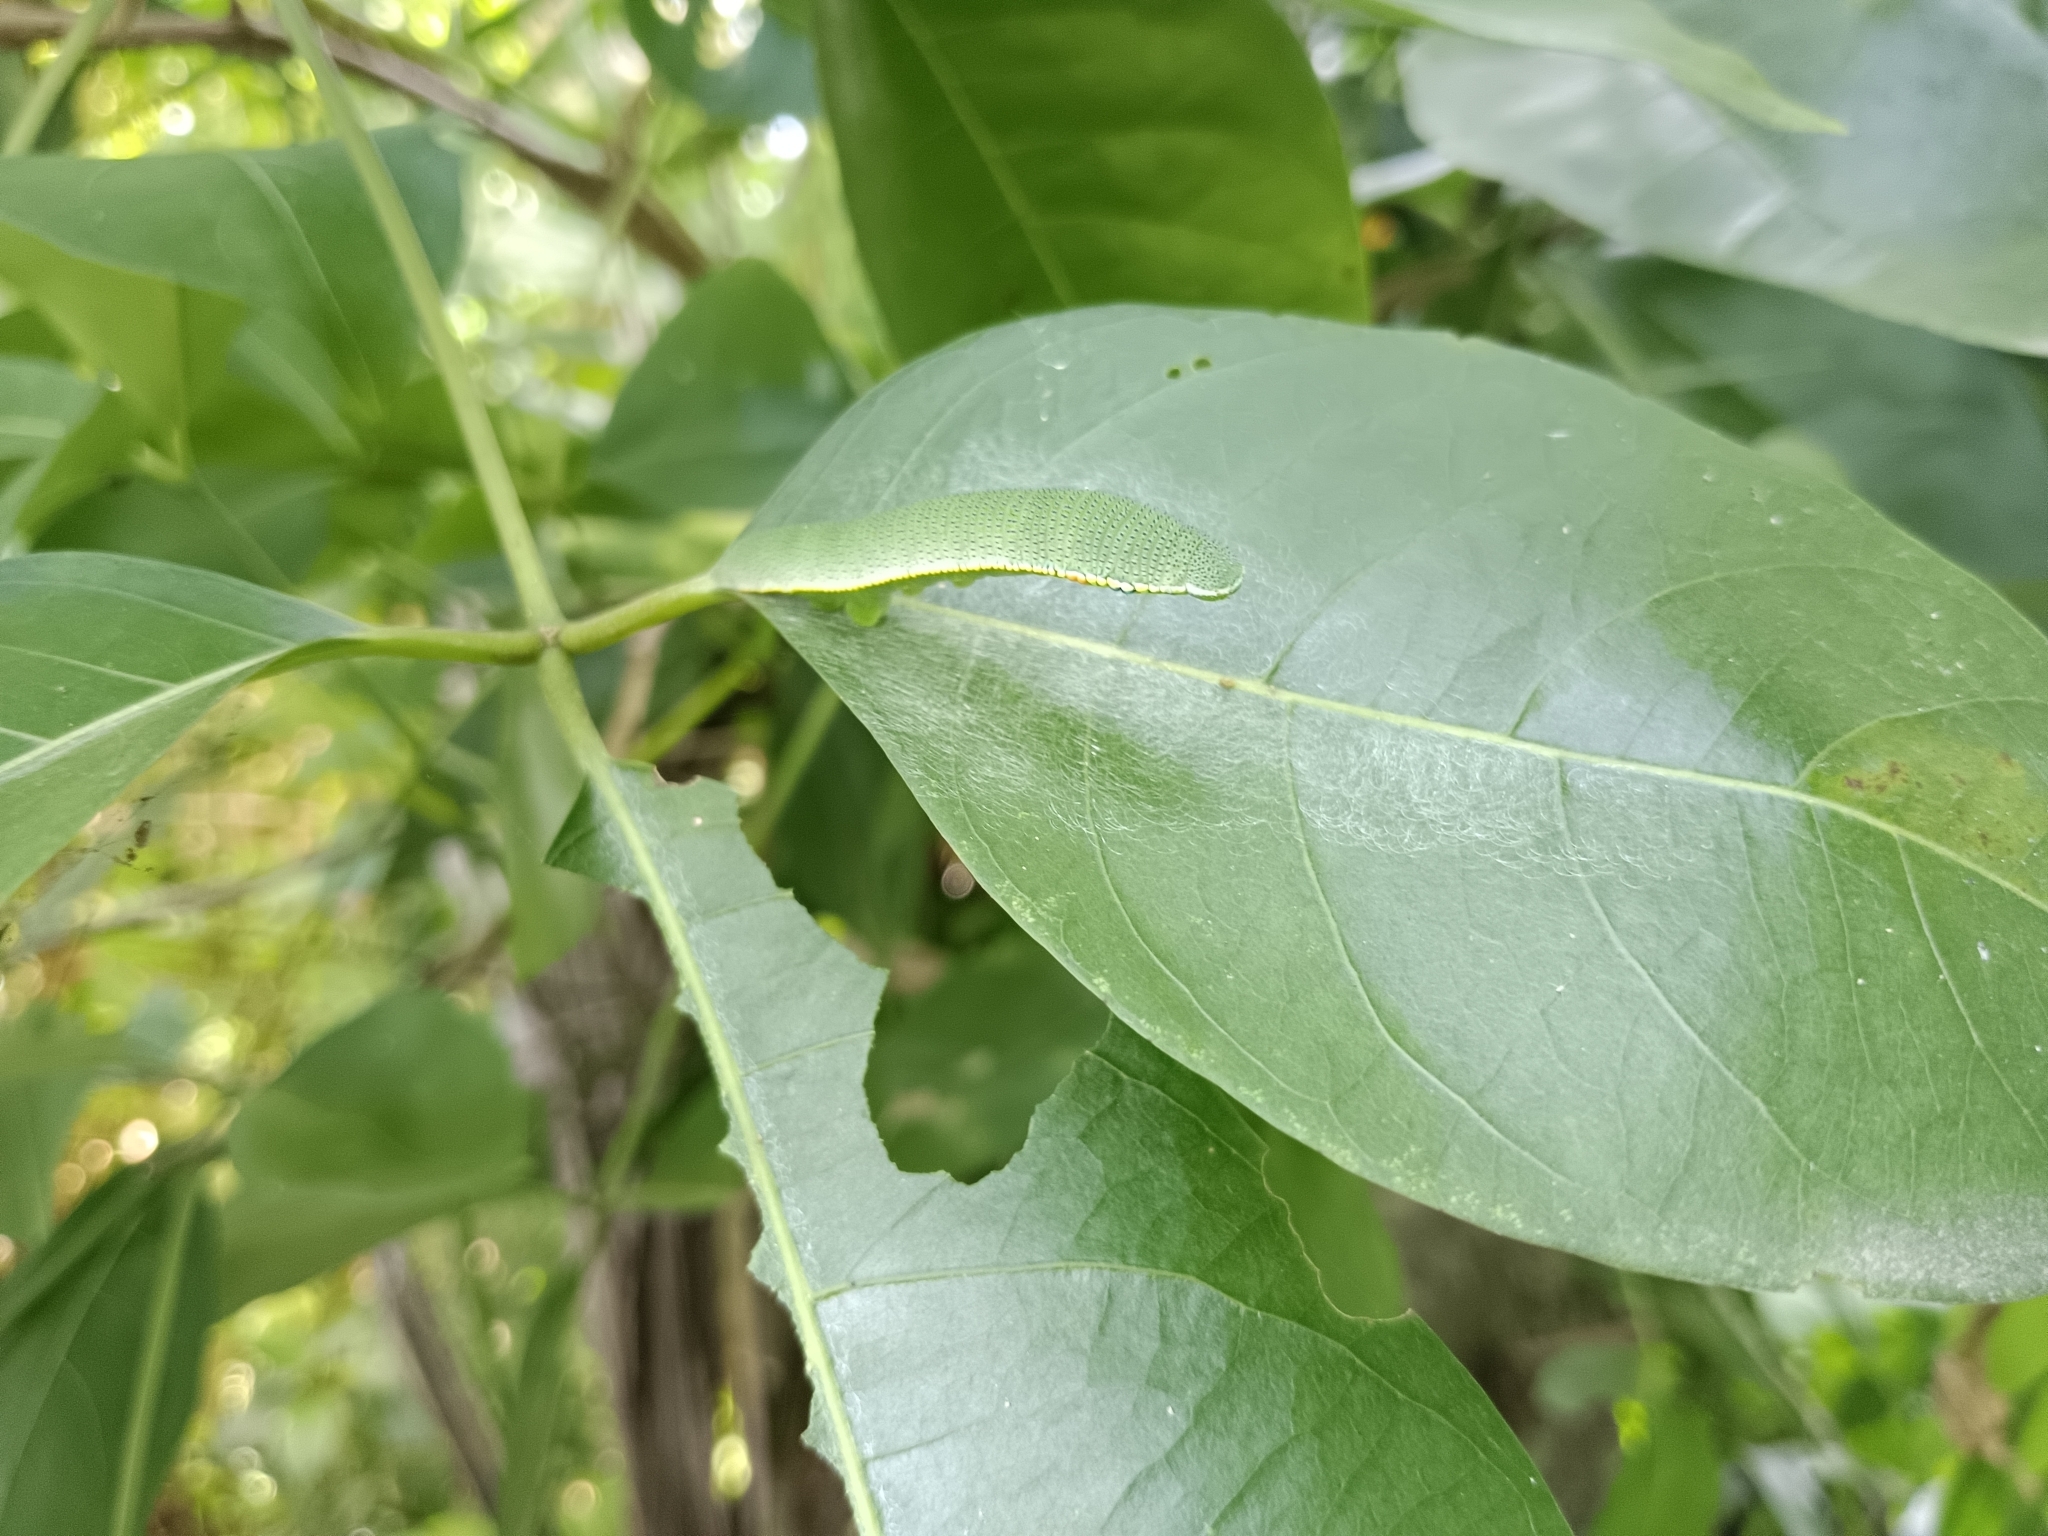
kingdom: Animalia
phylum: Arthropoda
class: Insecta
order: Lepidoptera
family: Pieridae
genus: Hebomoia
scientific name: Hebomoia glaucippe
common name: Great orange tip
